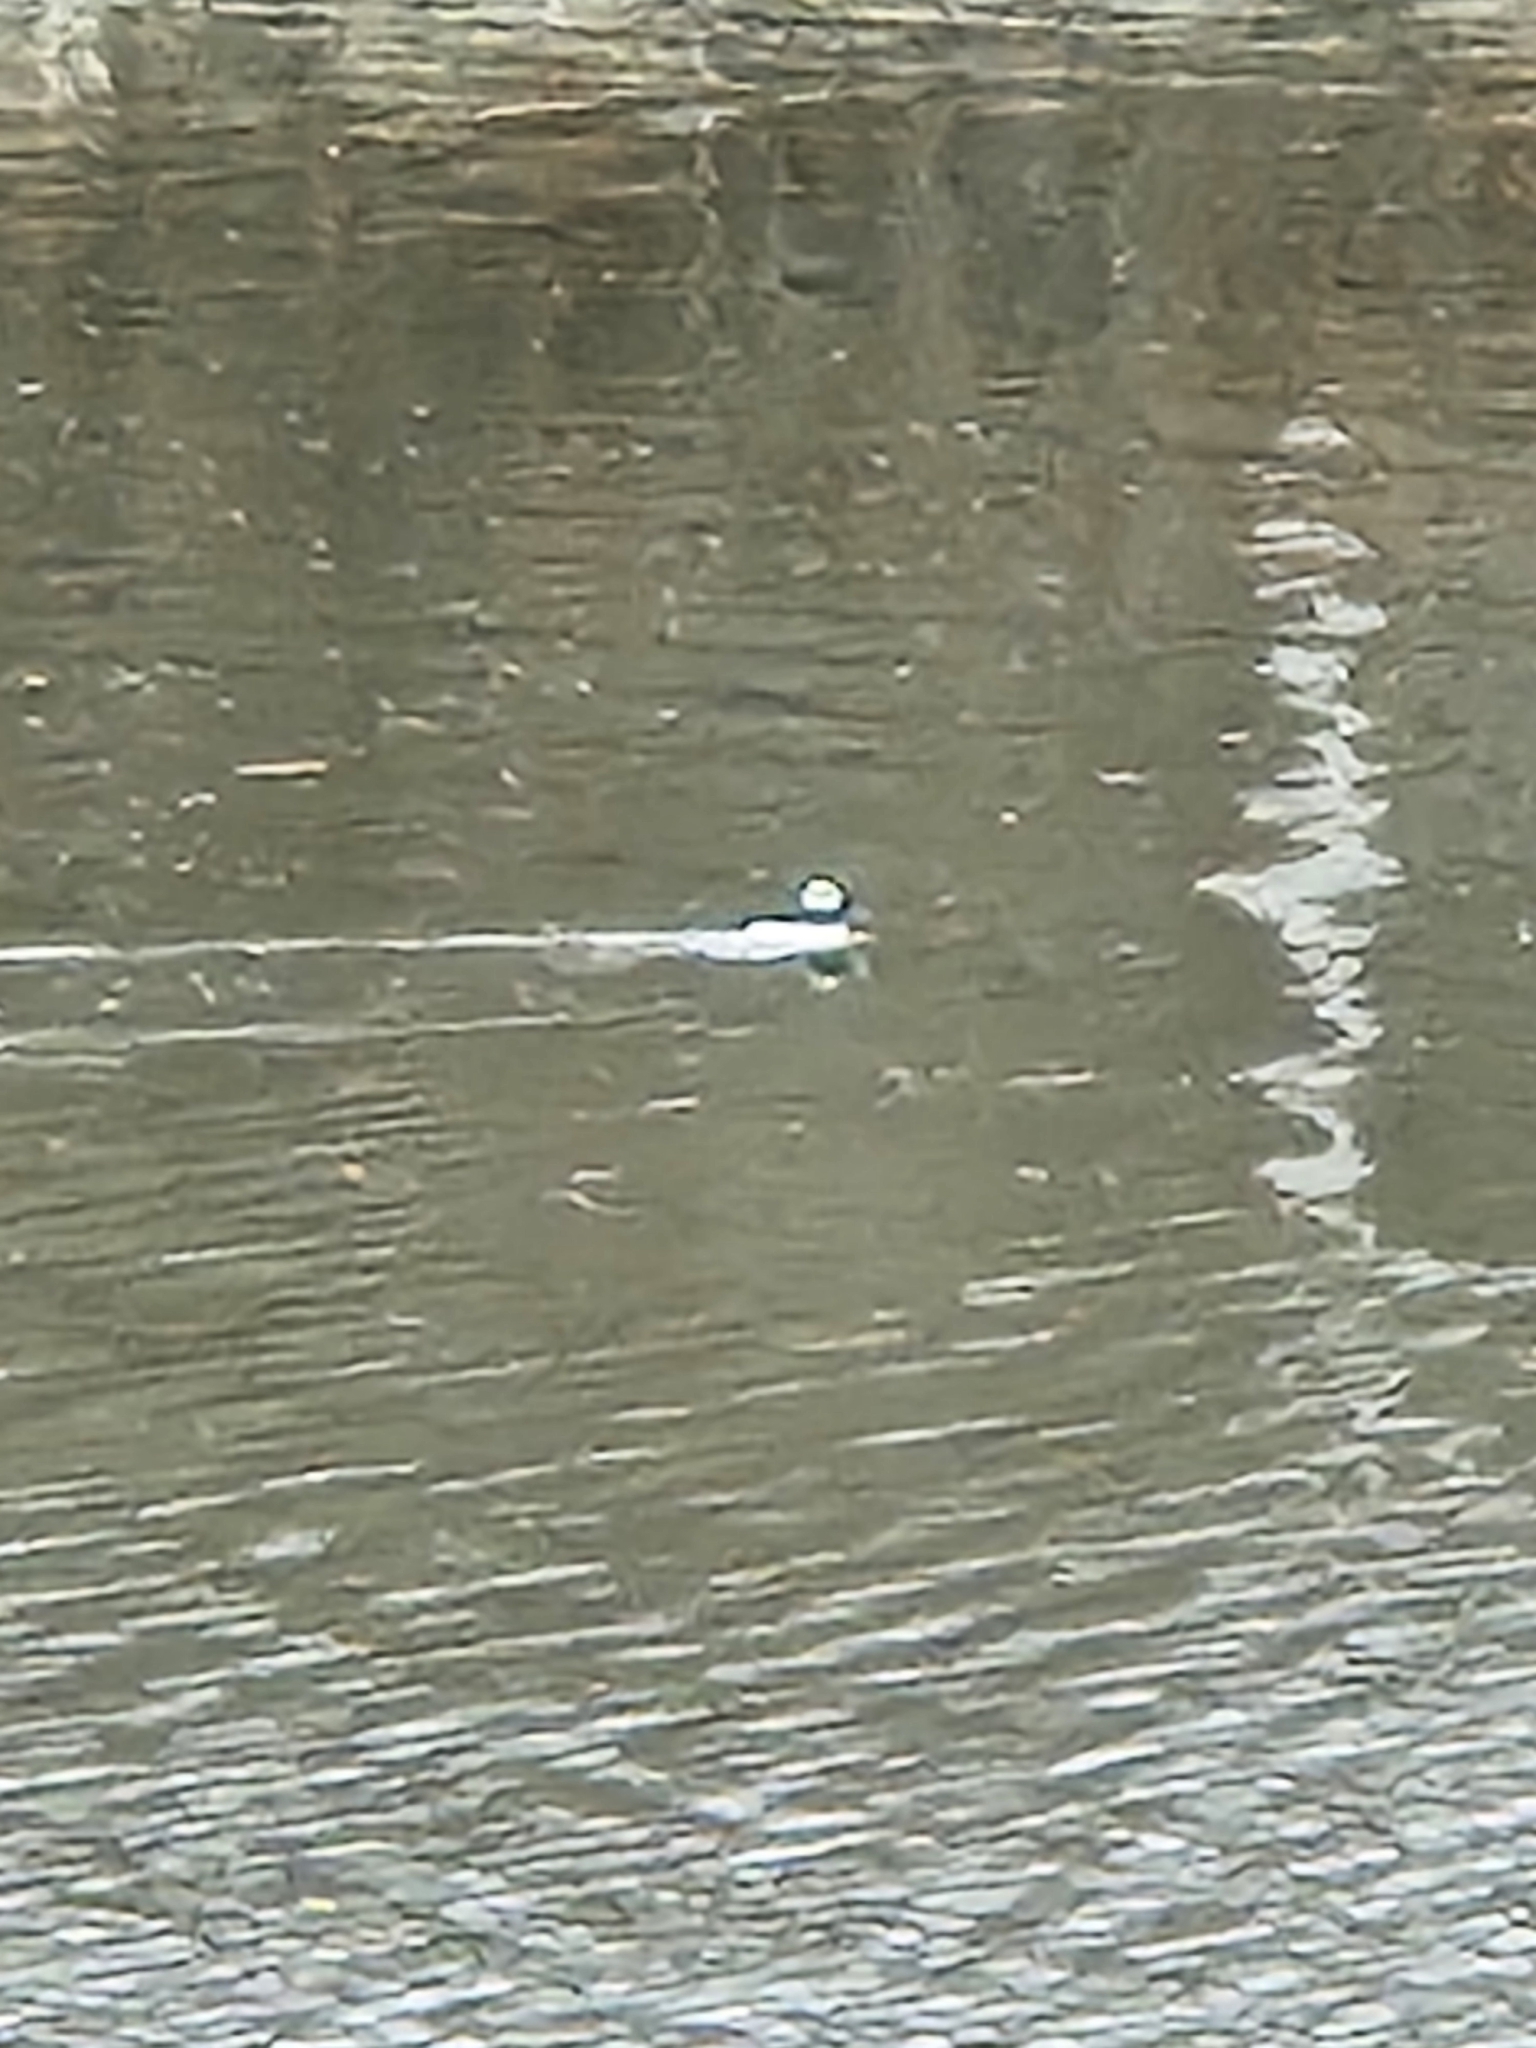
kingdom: Animalia
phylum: Chordata
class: Aves
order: Anseriformes
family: Anatidae
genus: Bucephala
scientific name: Bucephala albeola
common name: Bufflehead
